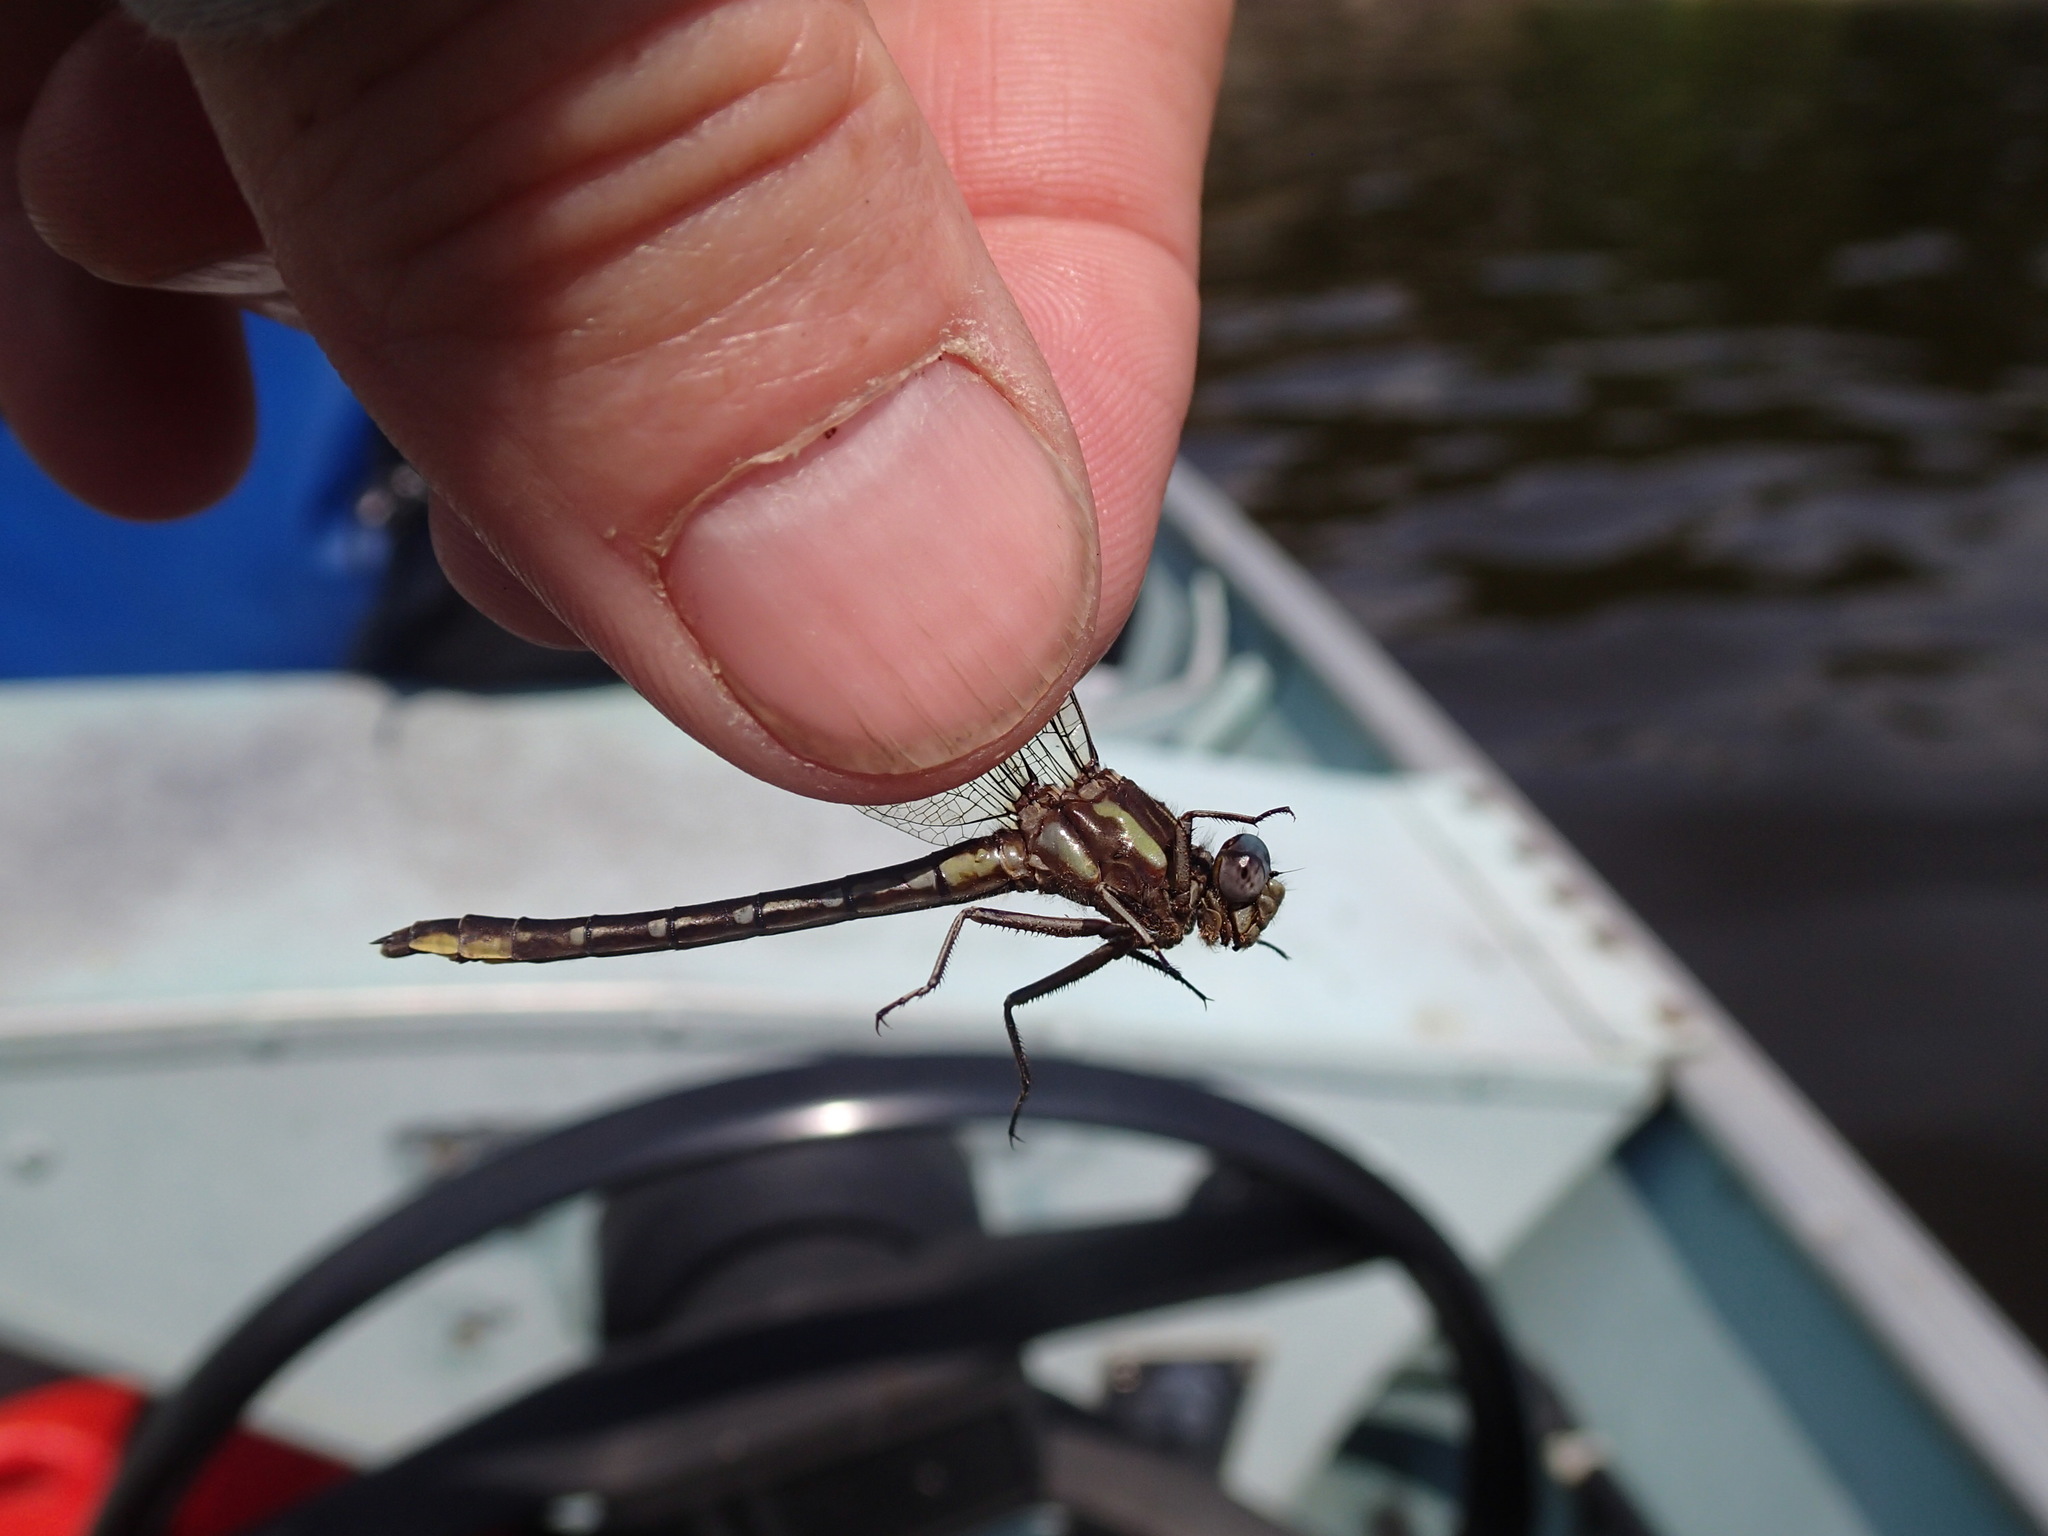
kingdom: Animalia
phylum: Arthropoda
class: Insecta
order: Odonata
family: Gomphidae
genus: Phanogomphus
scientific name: Phanogomphus exilis
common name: Lancet clubtail
